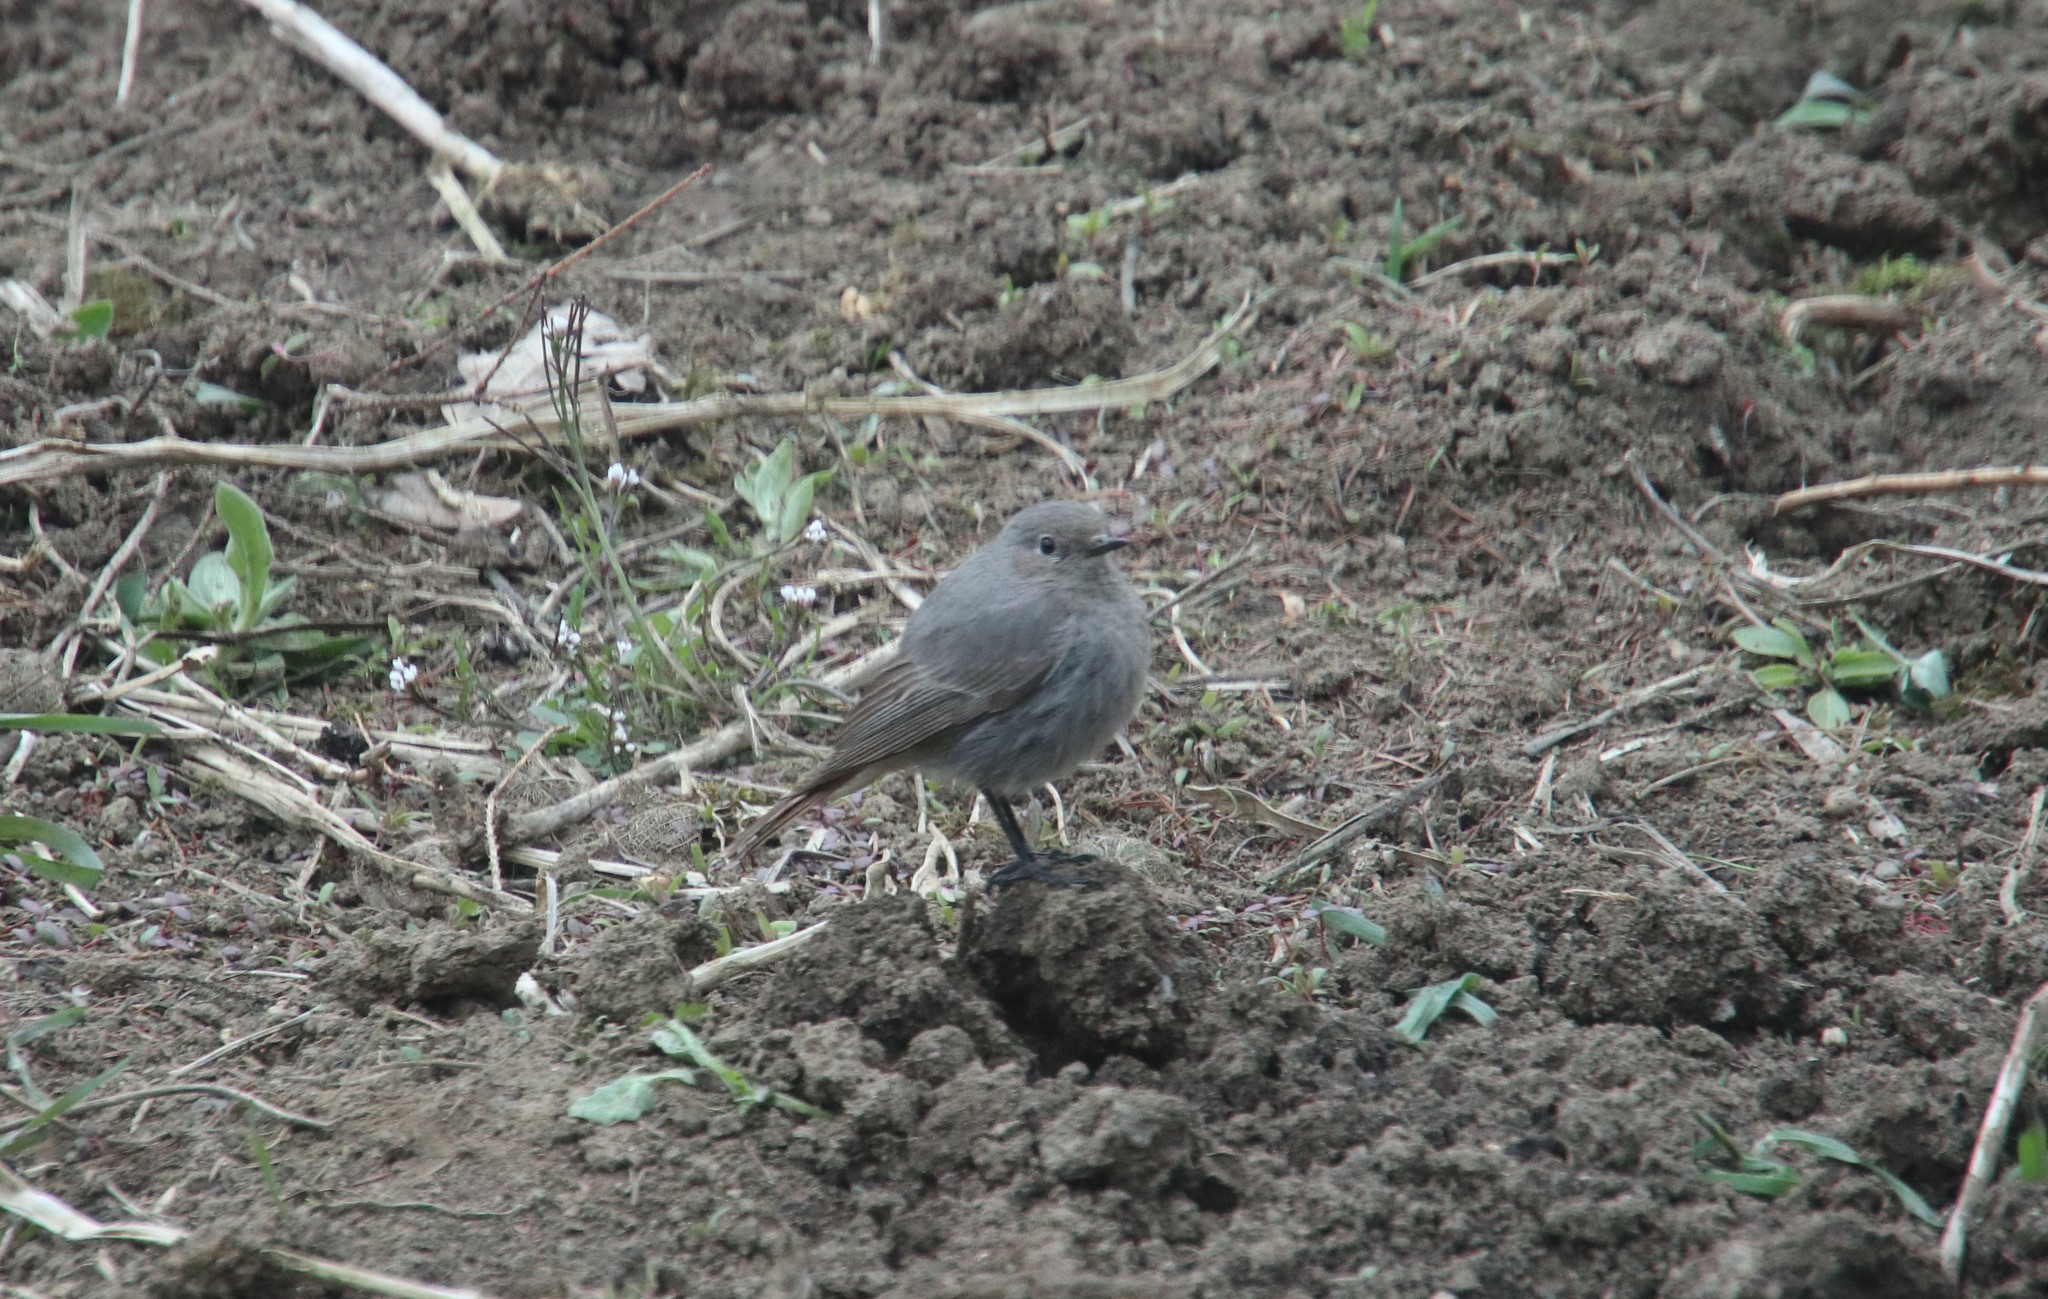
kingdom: Animalia
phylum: Chordata
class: Aves
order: Passeriformes
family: Muscicapidae
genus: Phoenicurus
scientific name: Phoenicurus ochruros
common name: Black redstart
